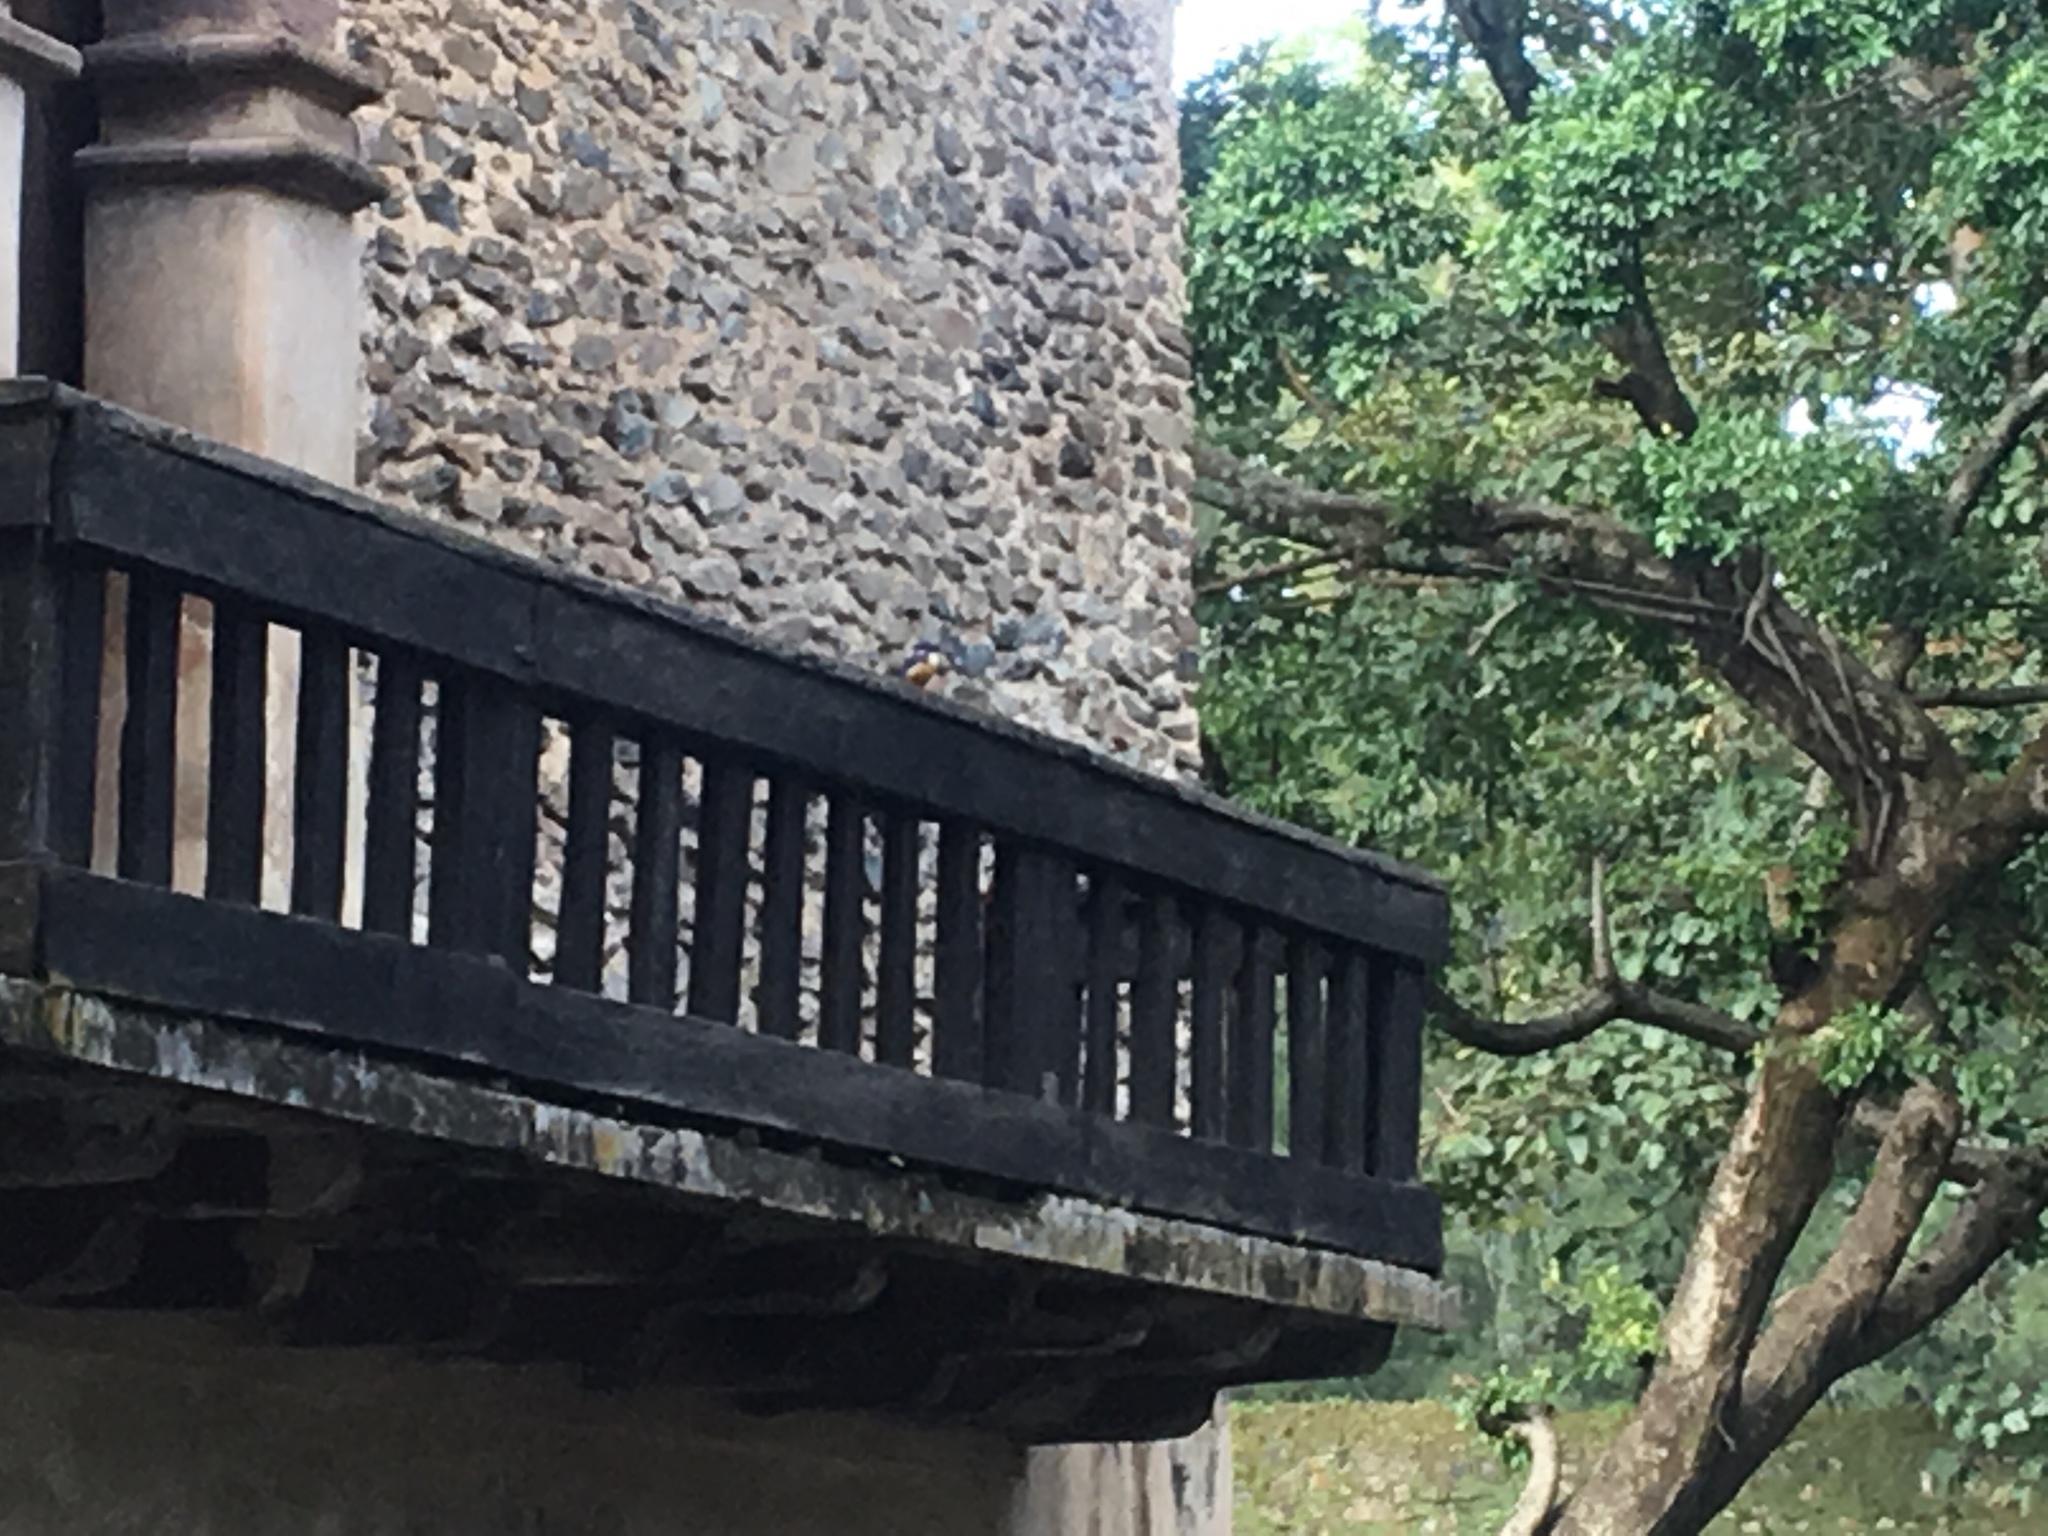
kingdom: Animalia
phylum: Chordata
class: Aves
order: Coraciiformes
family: Alcedinidae
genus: Alcedo
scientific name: Alcedo semitorquata
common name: Half-collared kingfisher
